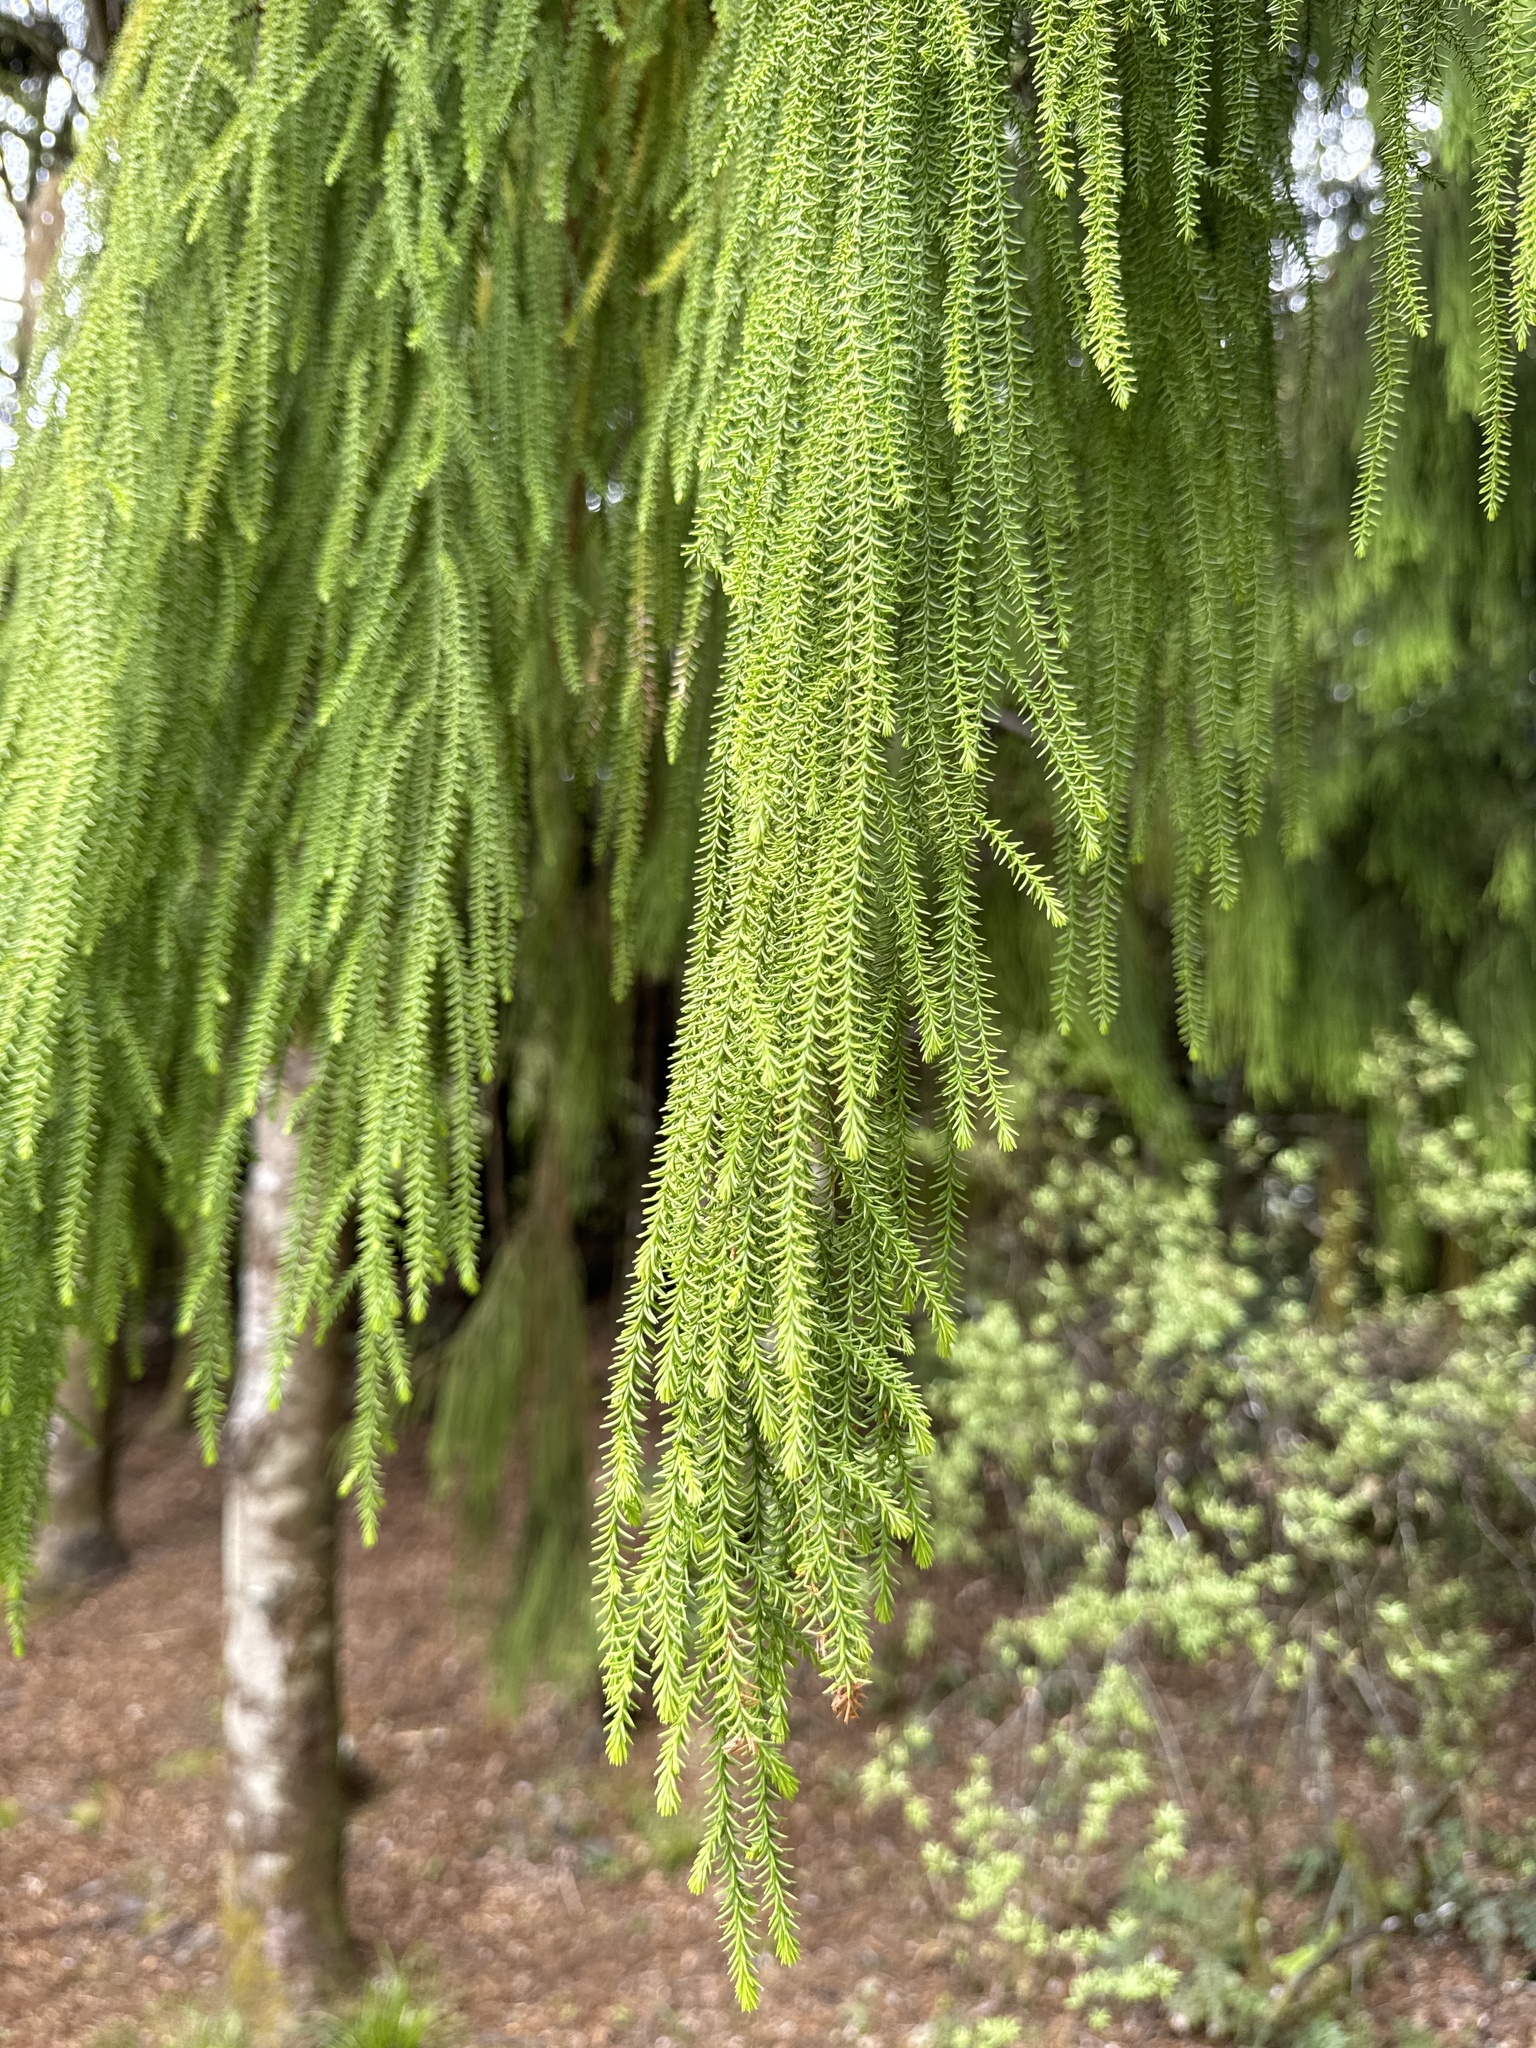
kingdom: Plantae
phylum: Tracheophyta
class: Pinopsida
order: Pinales
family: Podocarpaceae
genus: Dacrydium
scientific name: Dacrydium cupressinum
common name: Red pine
